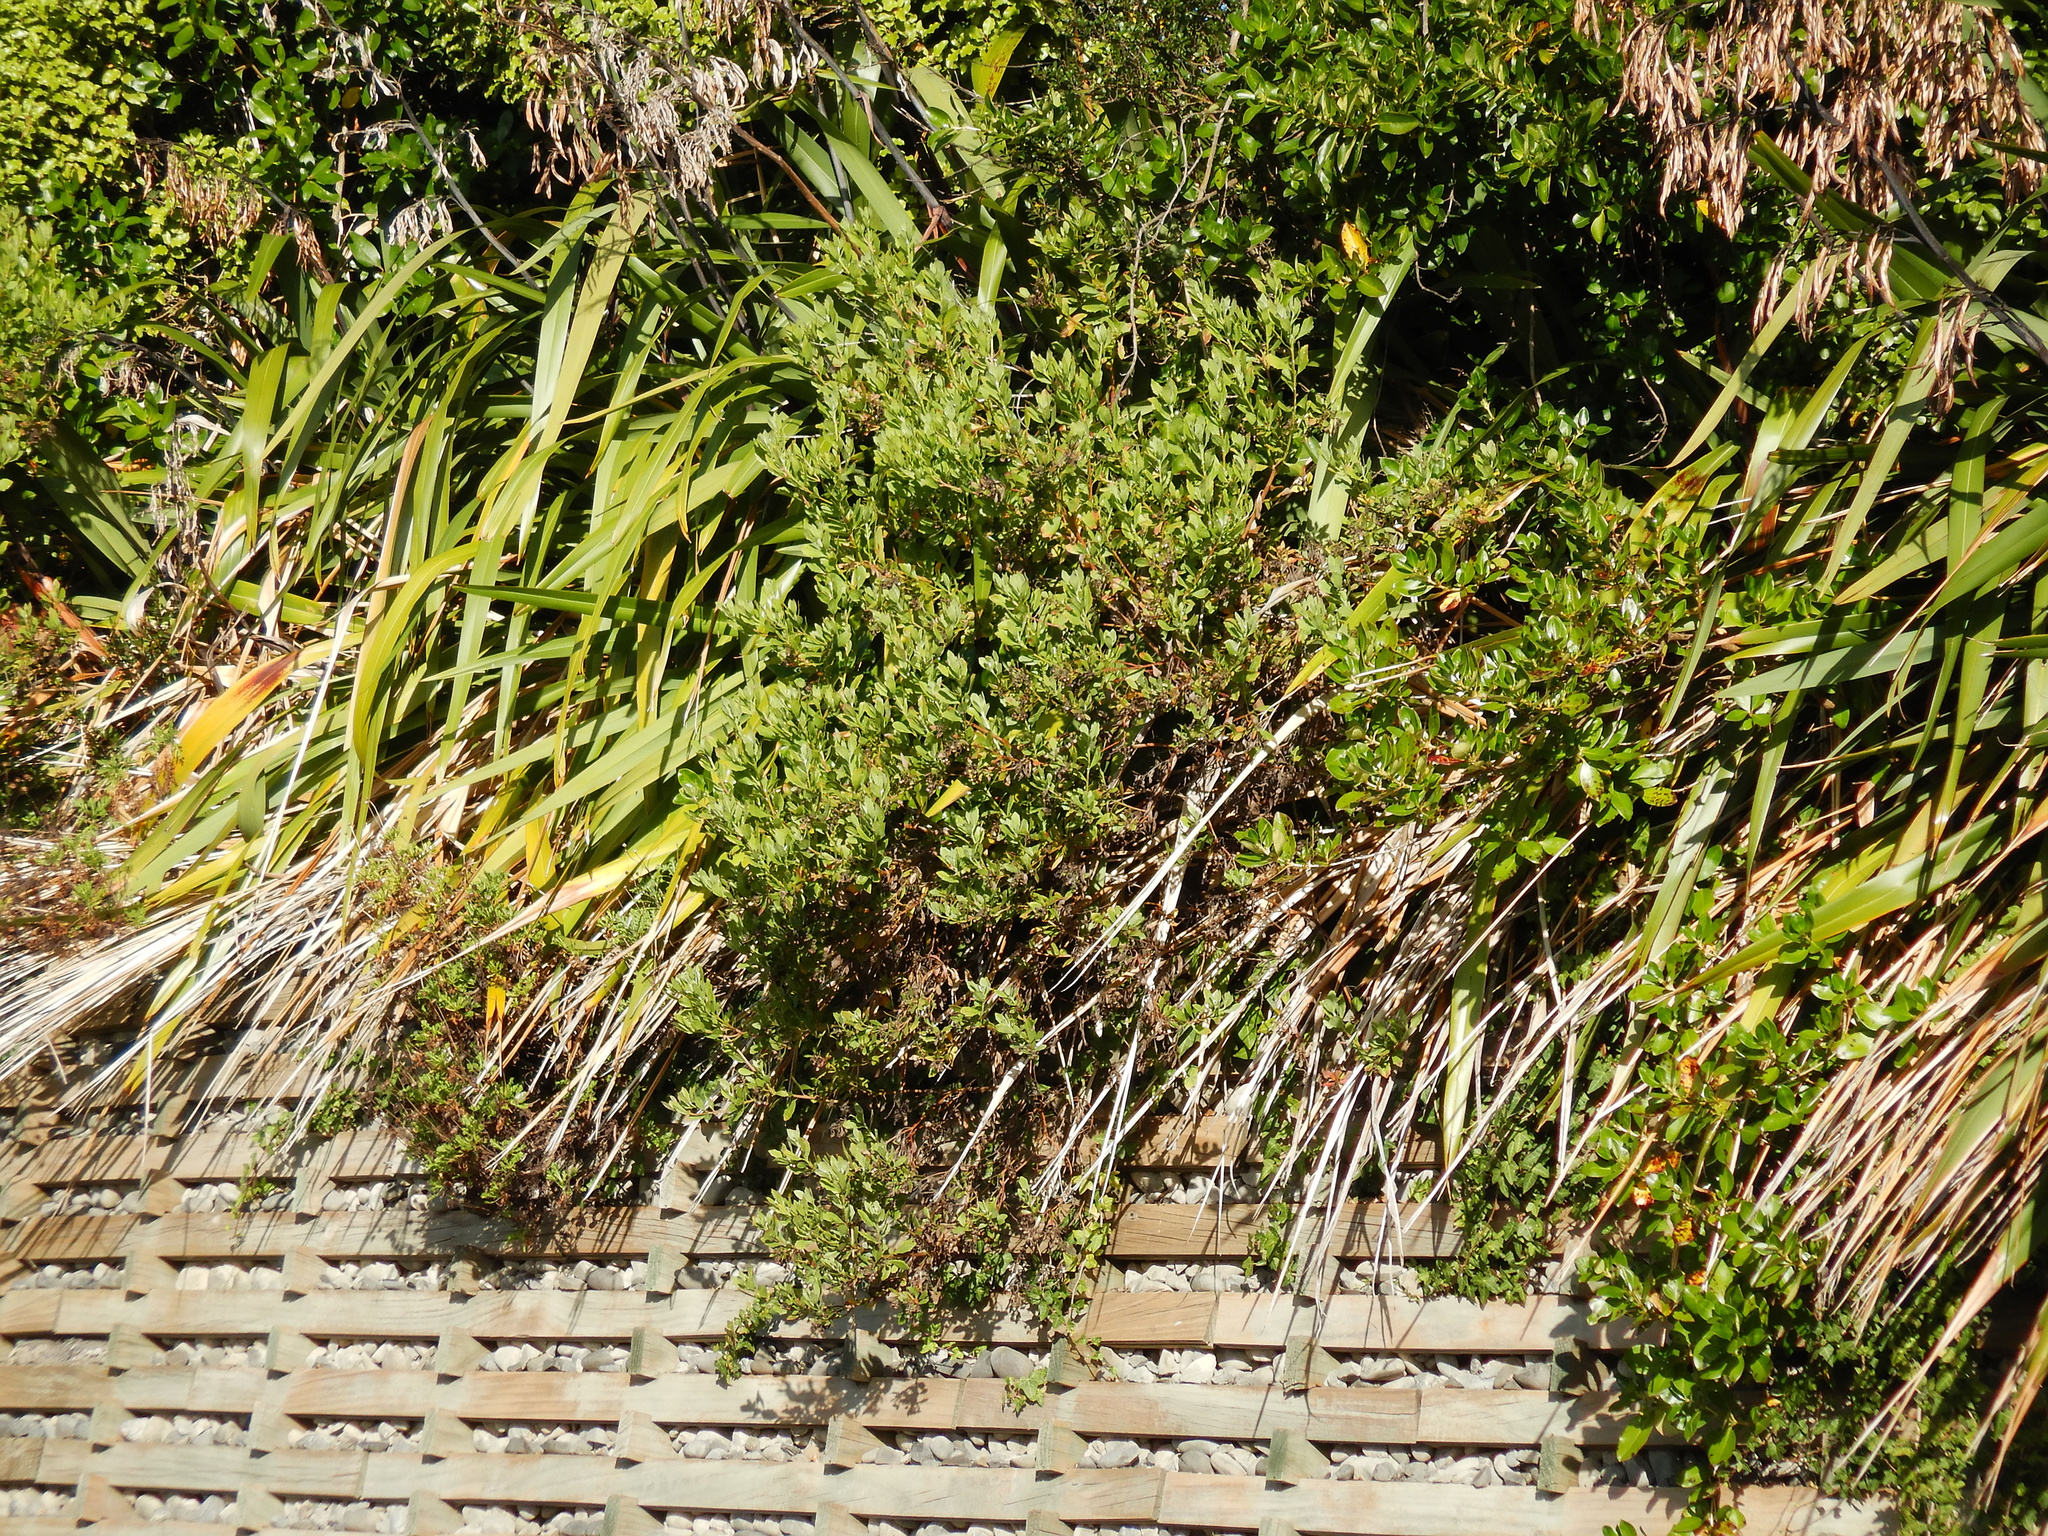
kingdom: Plantae
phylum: Tracheophyta
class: Magnoliopsida
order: Asterales
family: Asteraceae
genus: Osteospermum
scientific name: Osteospermum moniliferum
